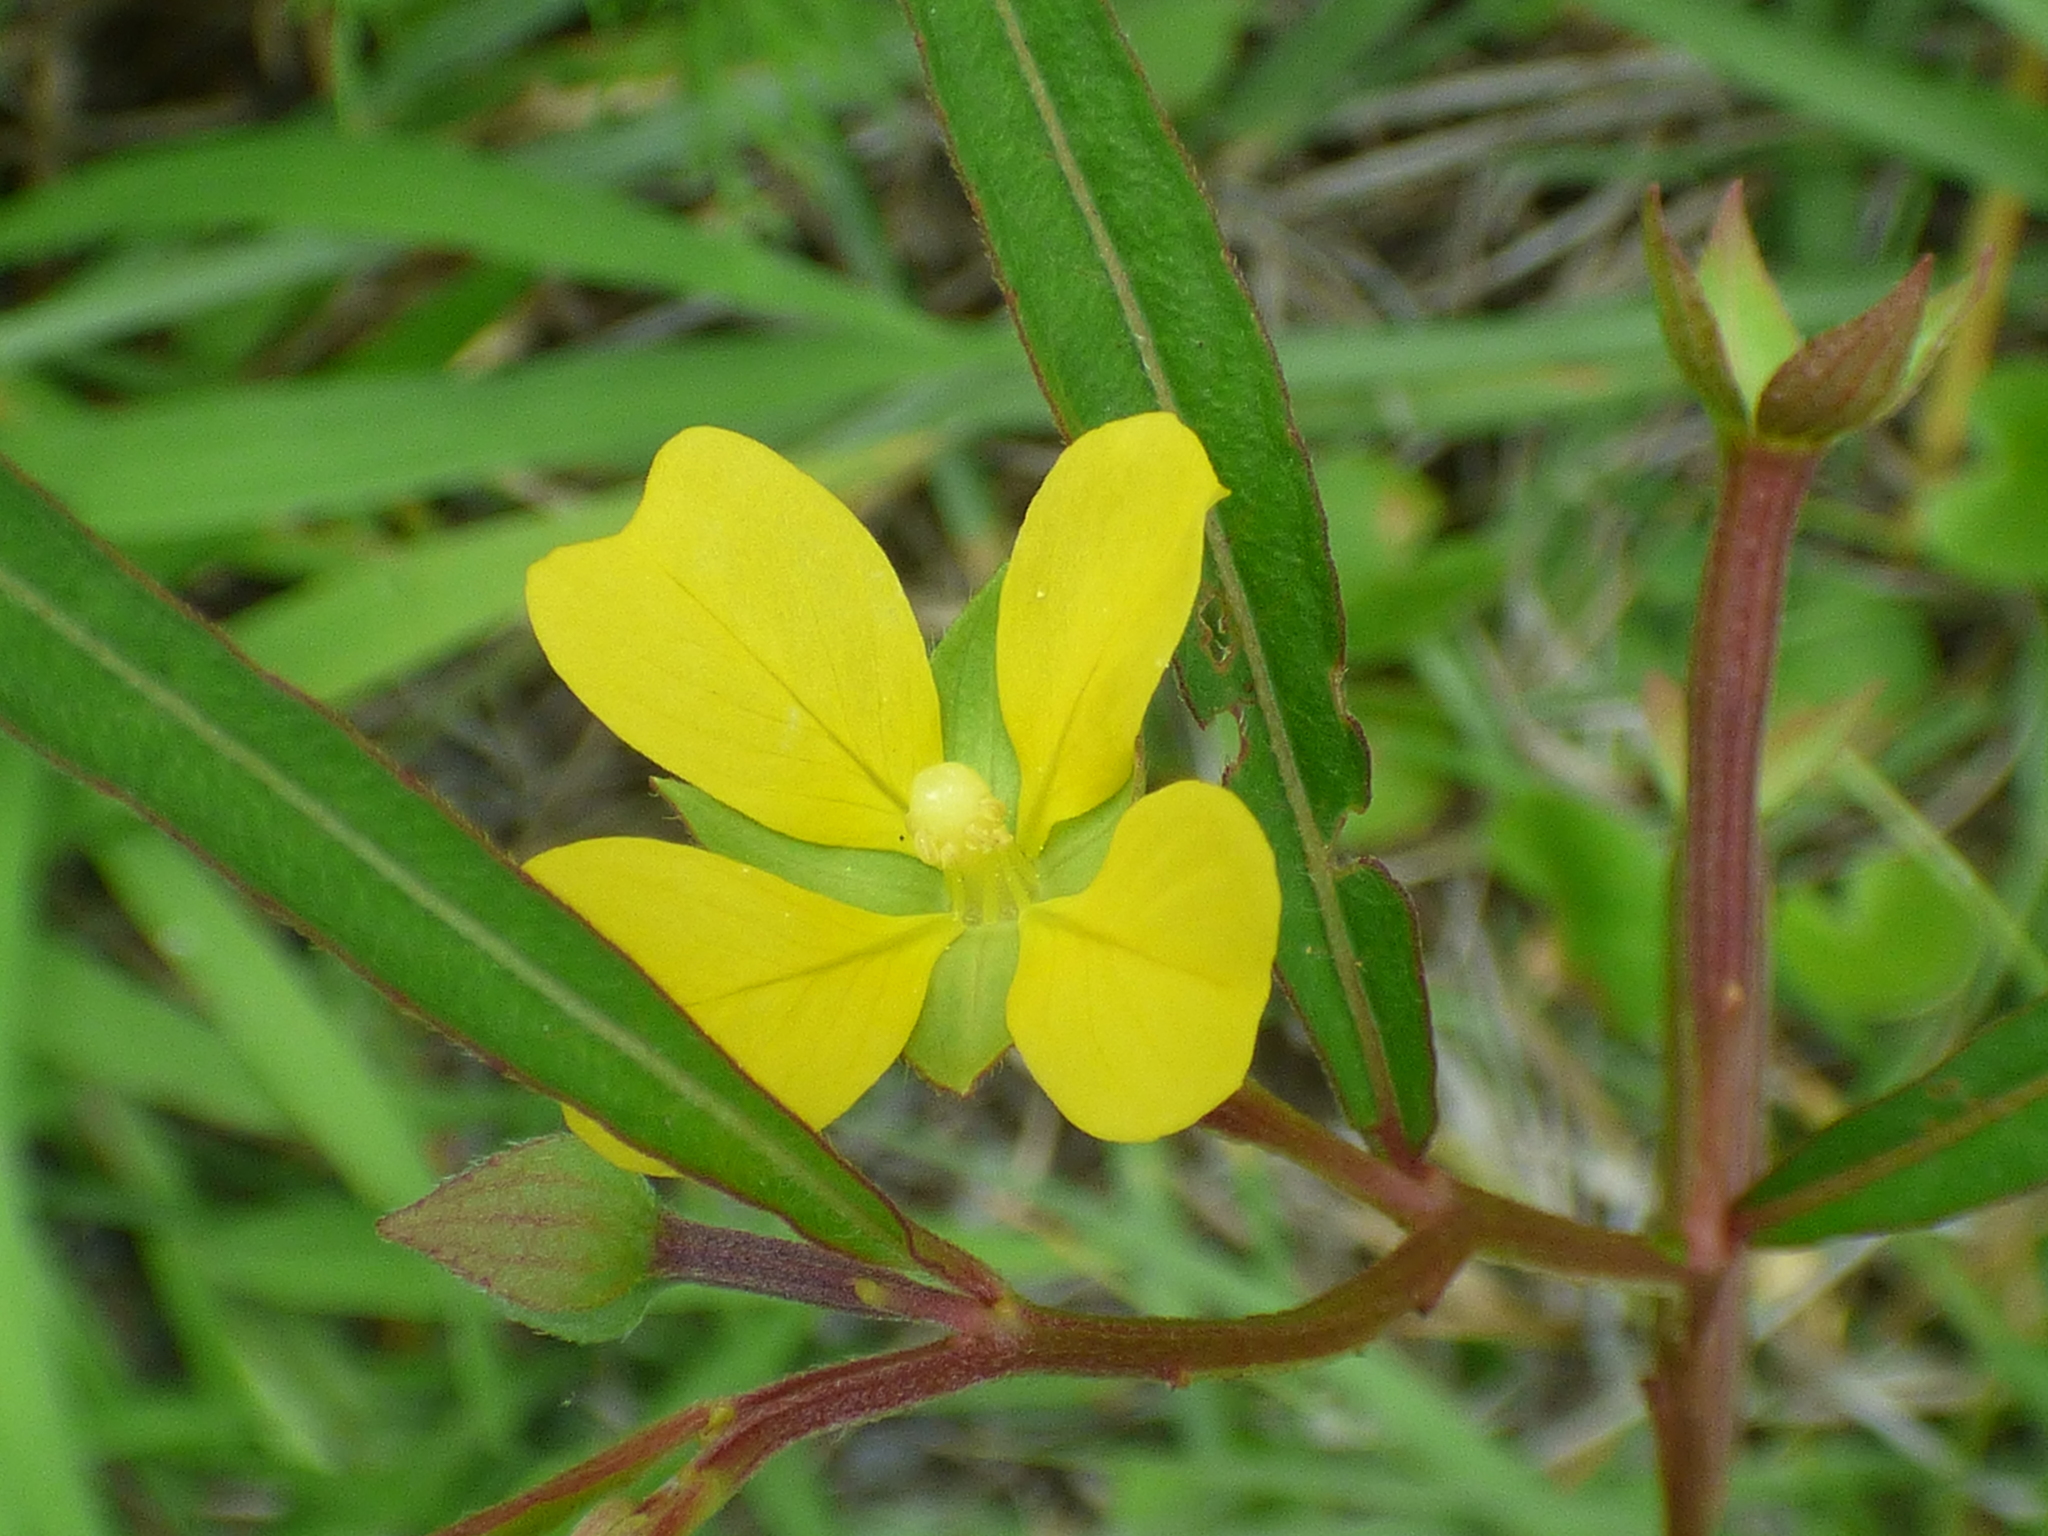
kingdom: Plantae
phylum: Tracheophyta
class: Magnoliopsida
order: Myrtales
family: Onagraceae
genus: Ludwigia
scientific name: Ludwigia octovalvis
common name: Water-primrose
